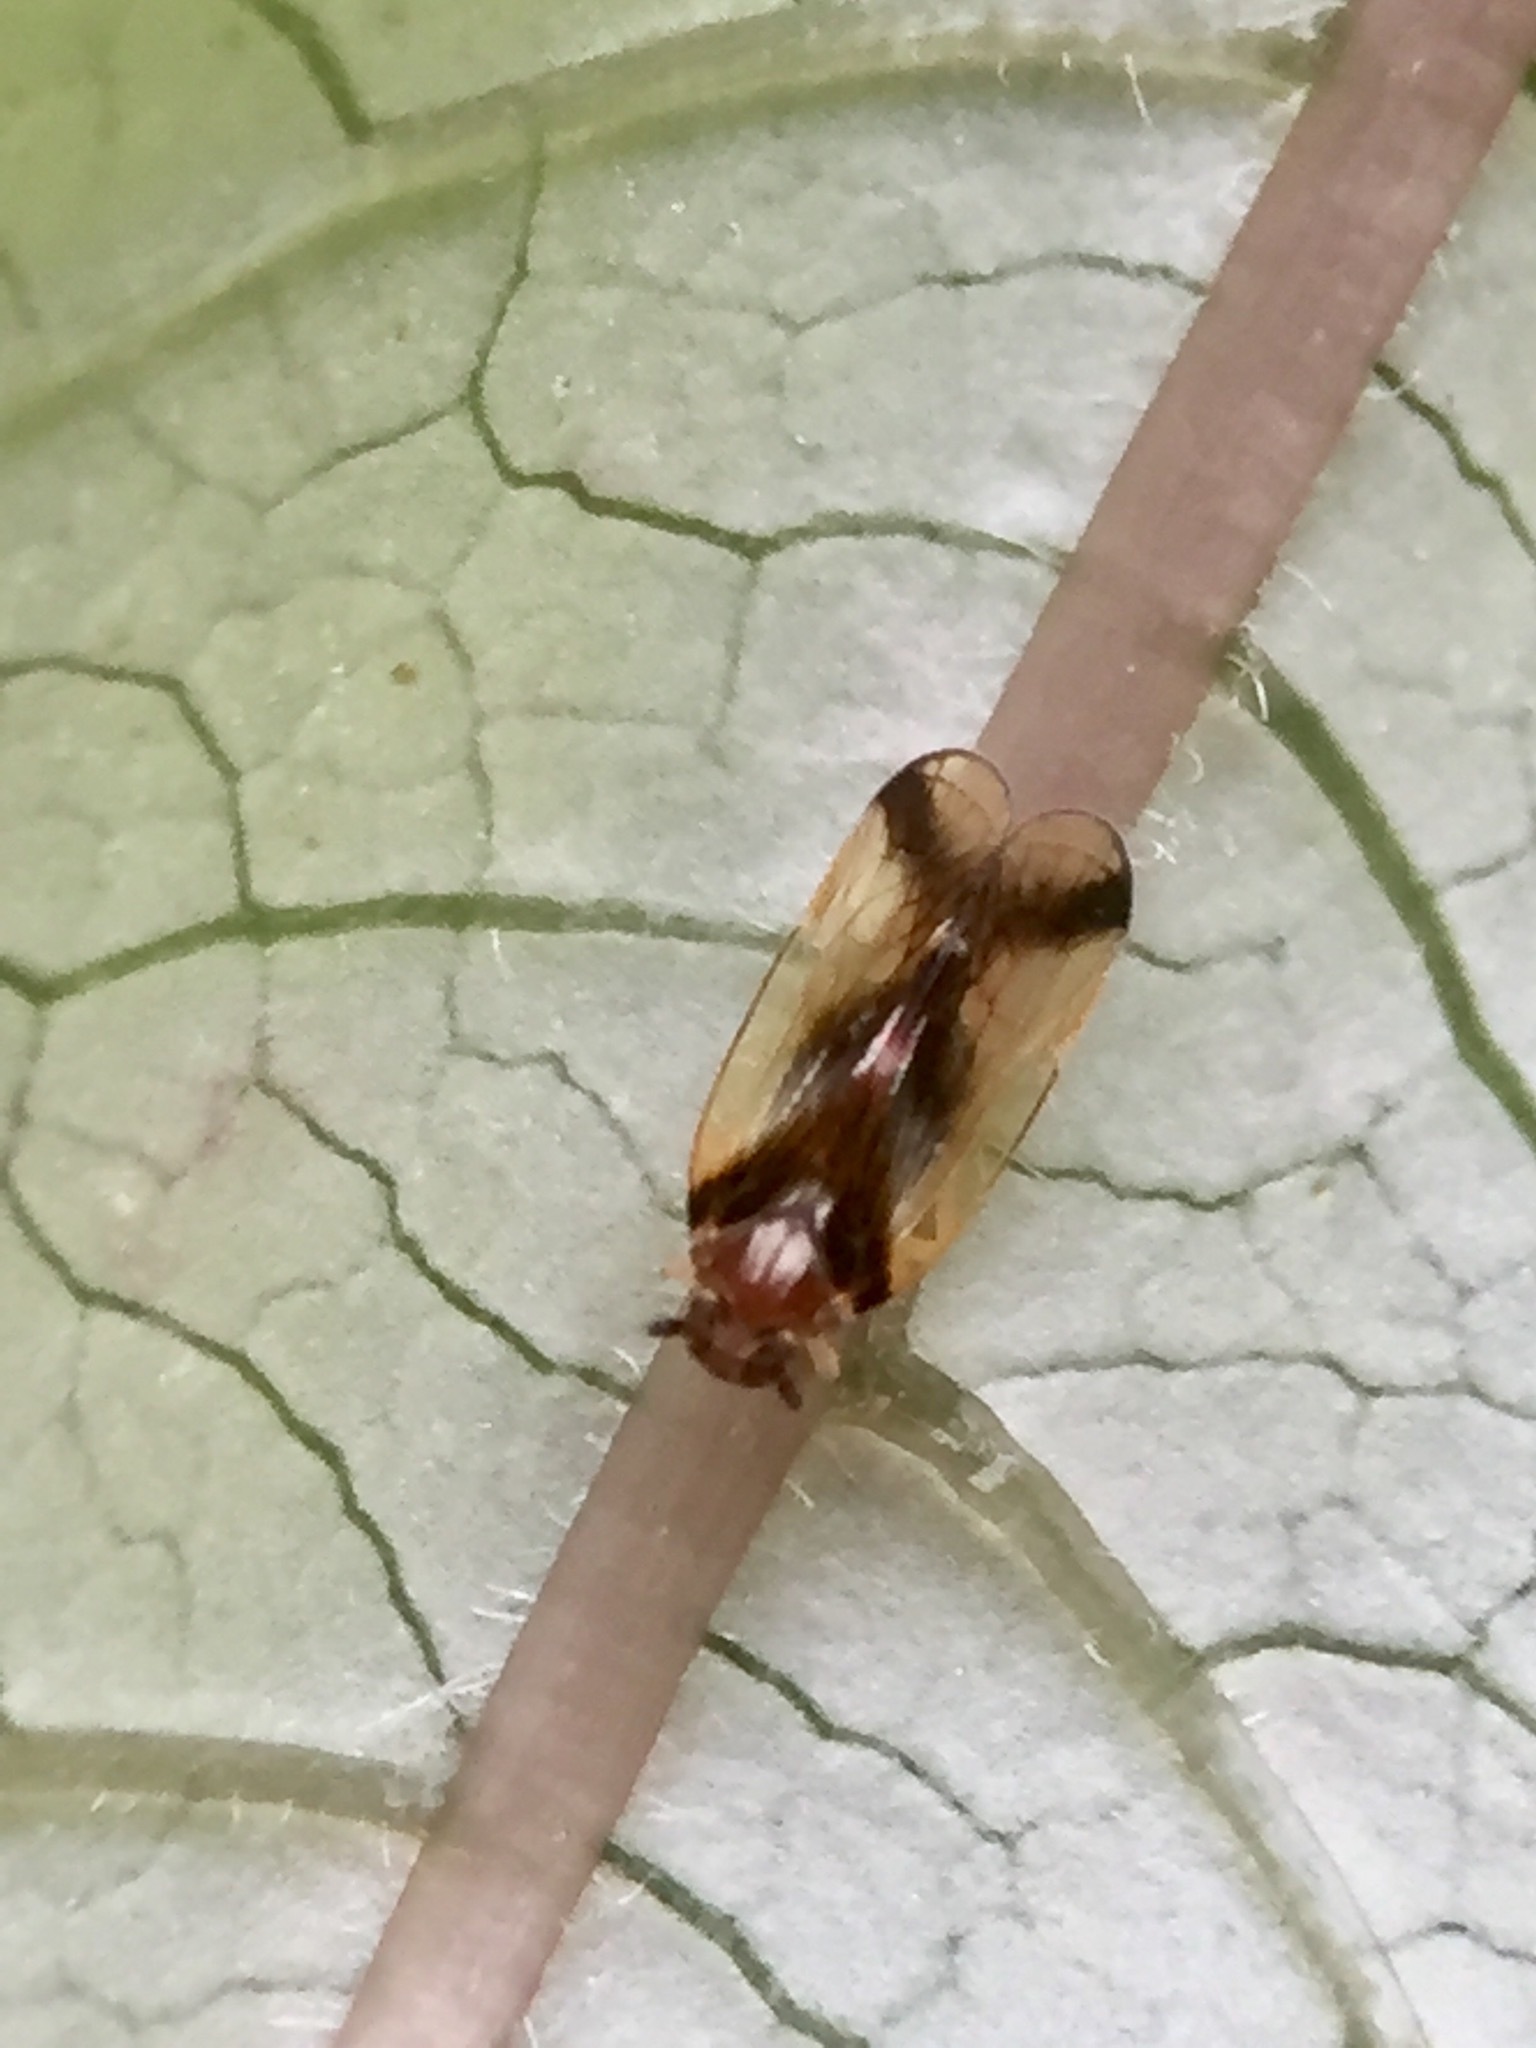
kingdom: Animalia
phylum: Arthropoda
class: Insecta
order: Hemiptera
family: Cixiidae
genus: Tiriteana
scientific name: Tiriteana clarkei
